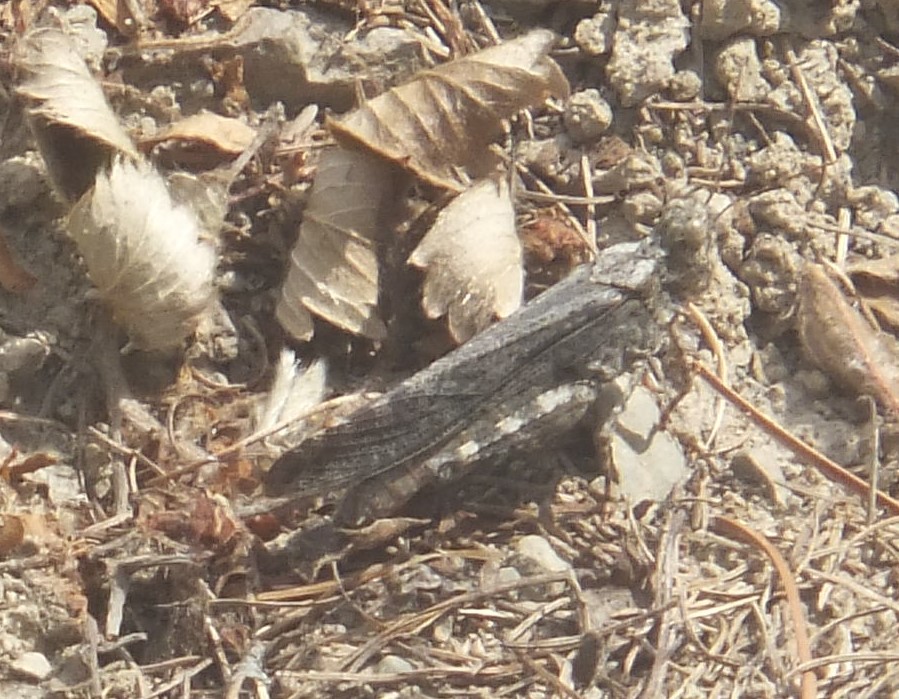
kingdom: Animalia
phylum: Arthropoda
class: Insecta
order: Orthoptera
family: Acrididae
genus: Trimerotropis
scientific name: Trimerotropis verruculata
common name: Crackling forest grasshopper
